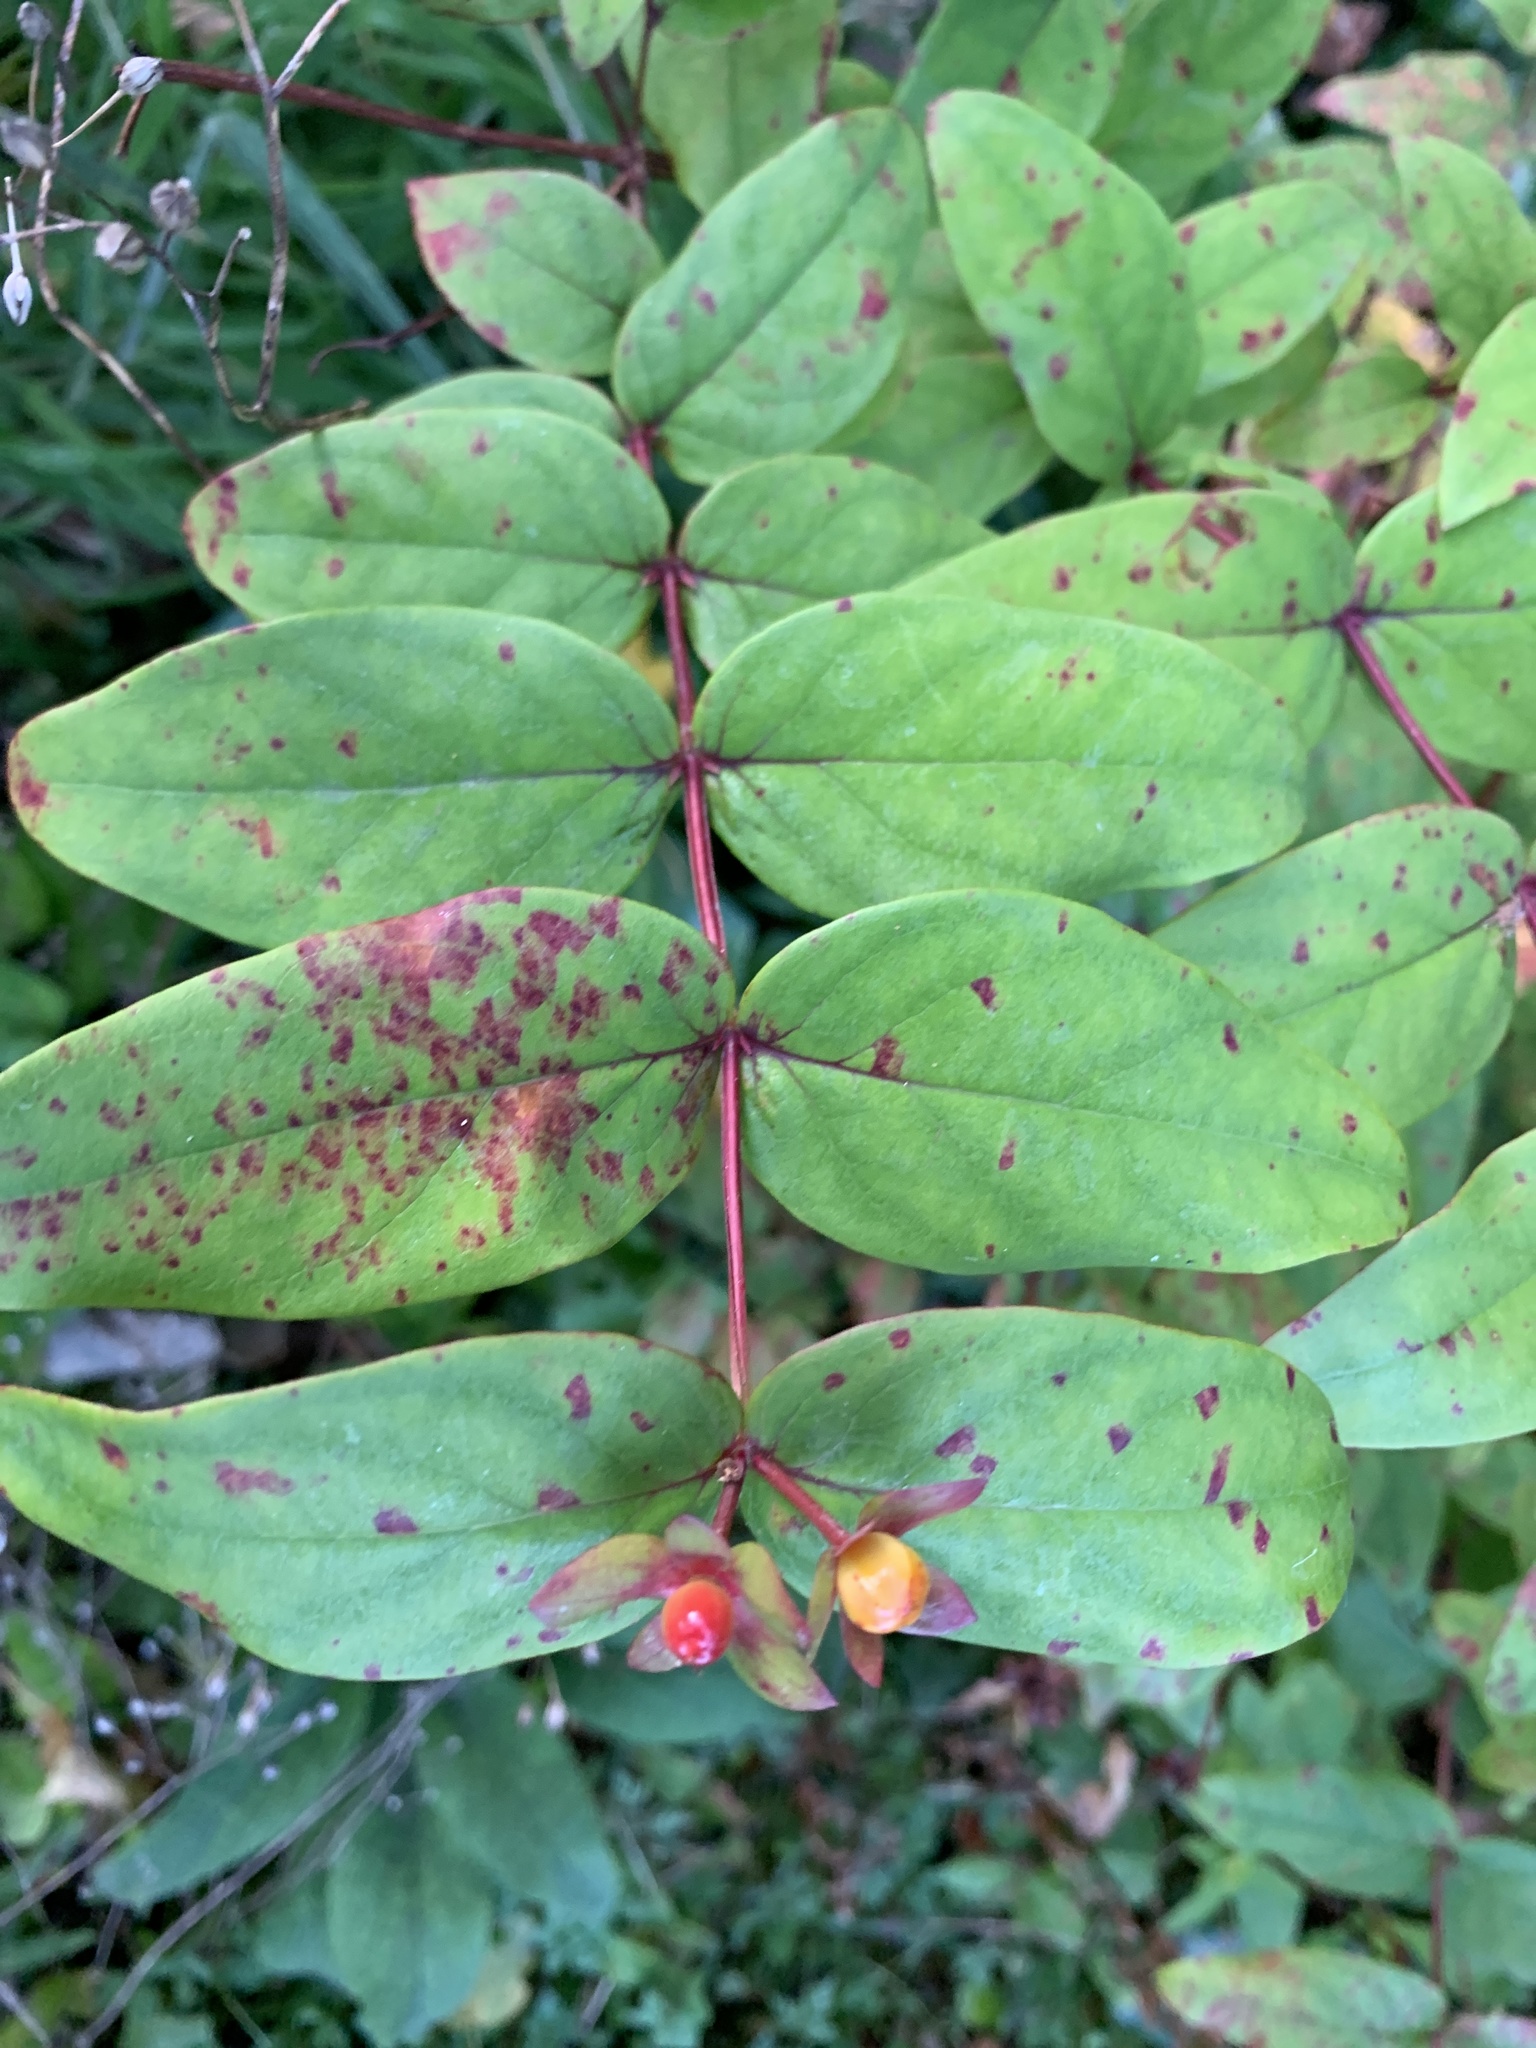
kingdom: Plantae
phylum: Tracheophyta
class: Magnoliopsida
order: Malpighiales
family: Hypericaceae
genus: Hypericum
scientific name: Hypericum androsaemum
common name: Sweet-amber
